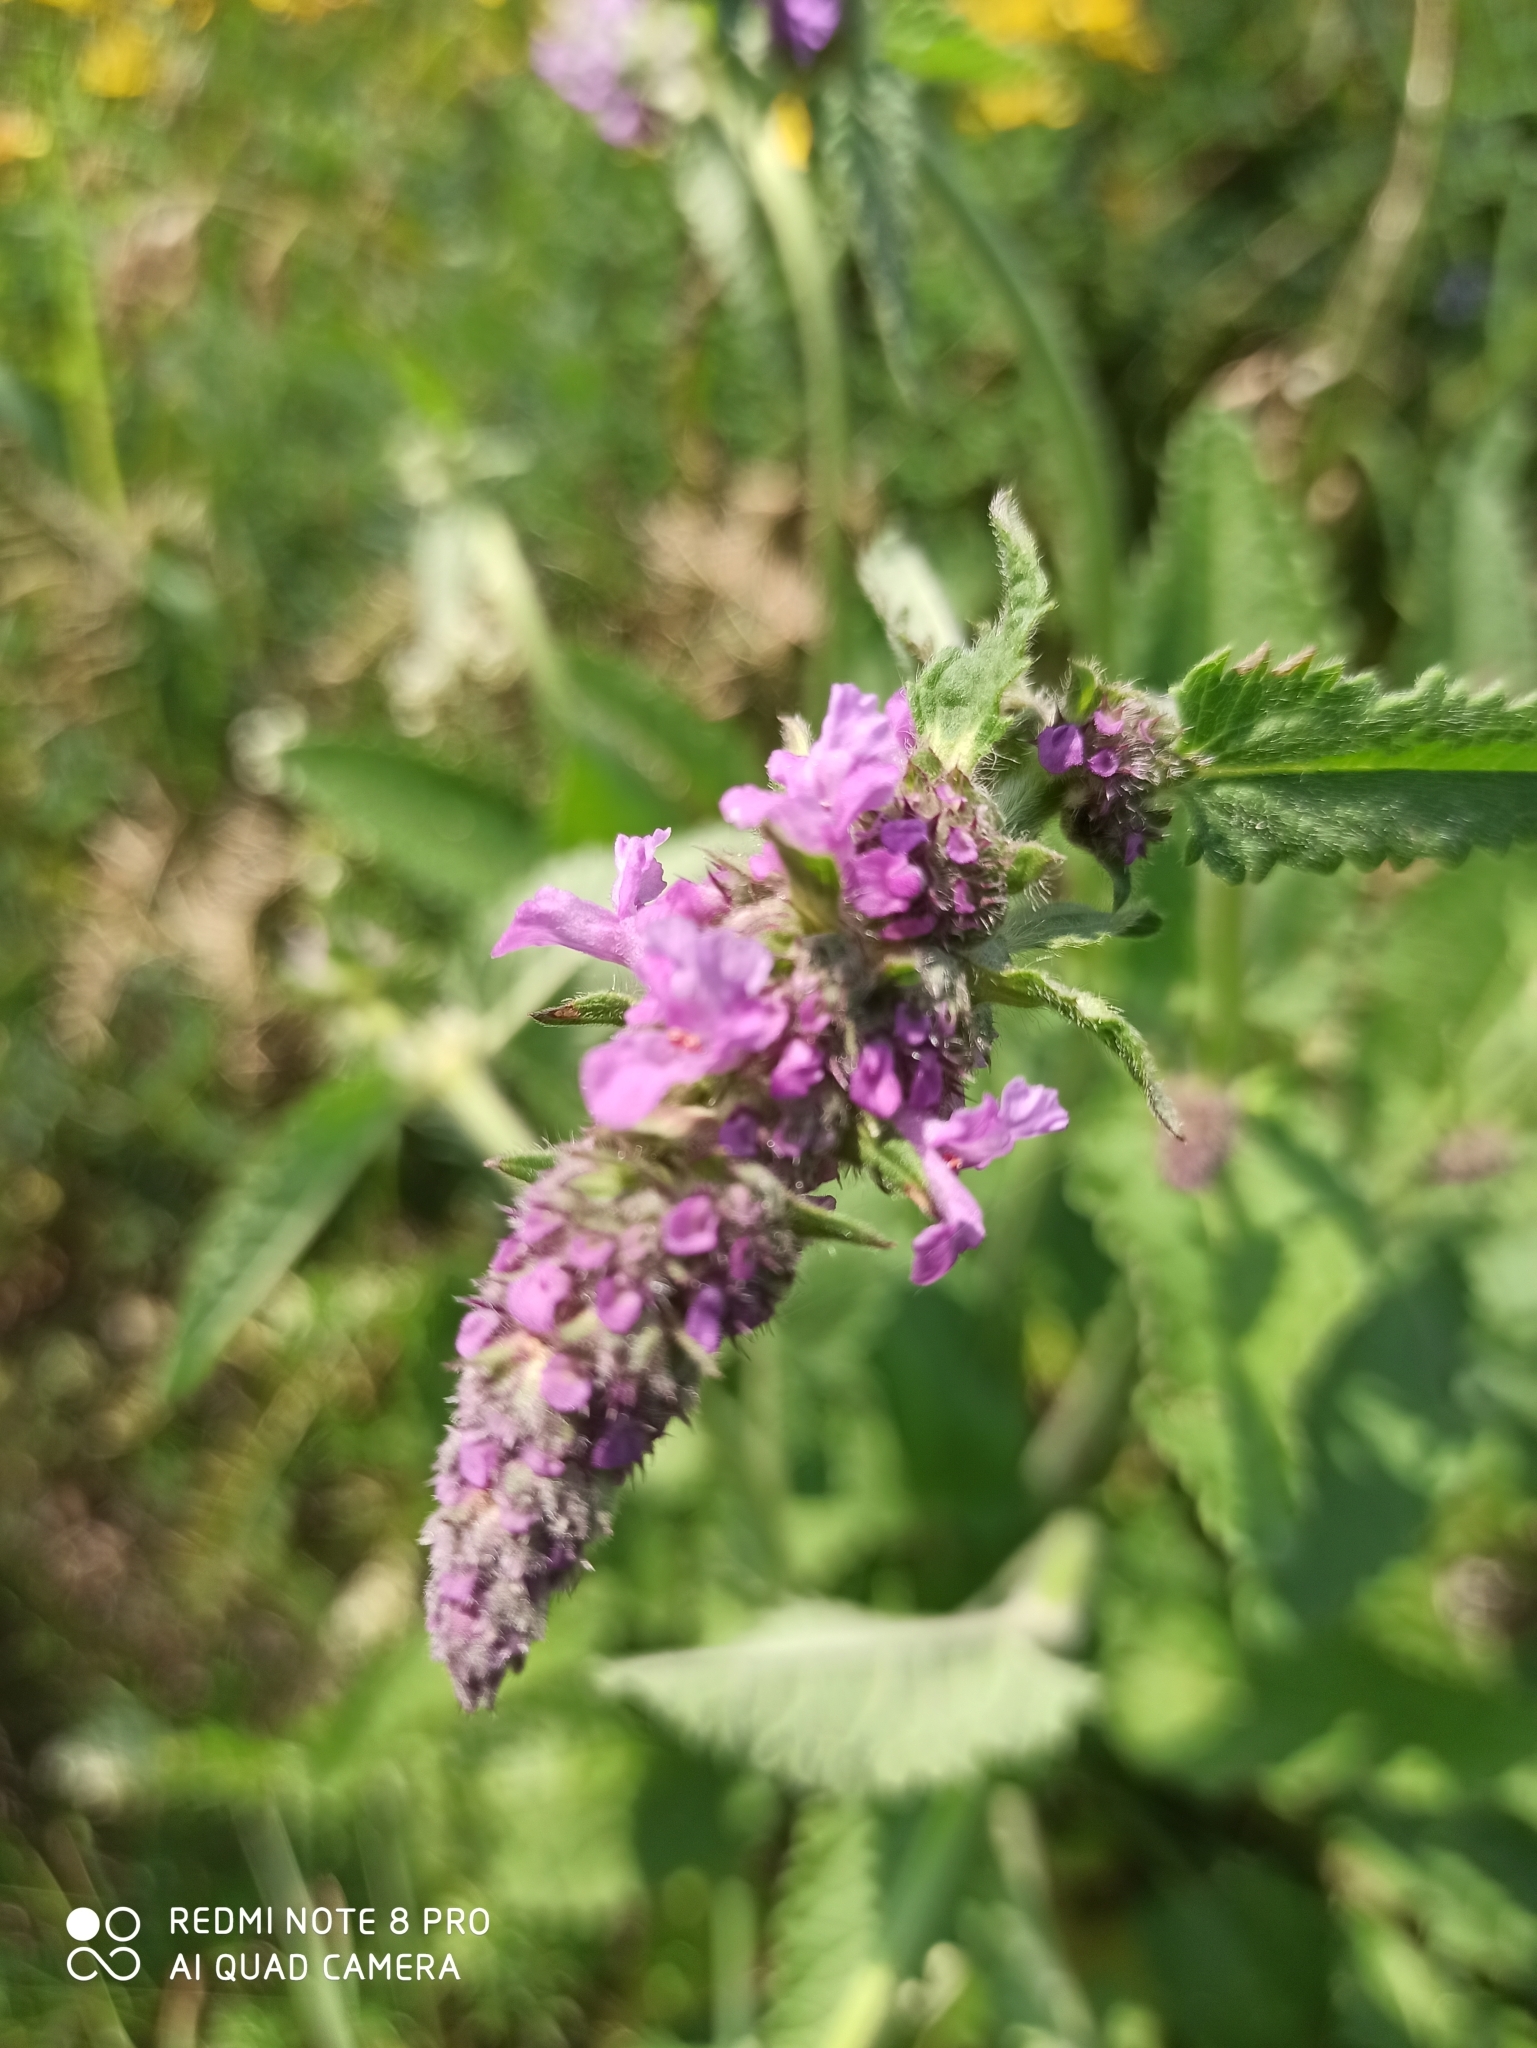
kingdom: Plantae
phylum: Tracheophyta
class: Magnoliopsida
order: Lamiales
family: Lamiaceae
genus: Betonica
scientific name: Betonica officinalis
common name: Bishop's-wort
